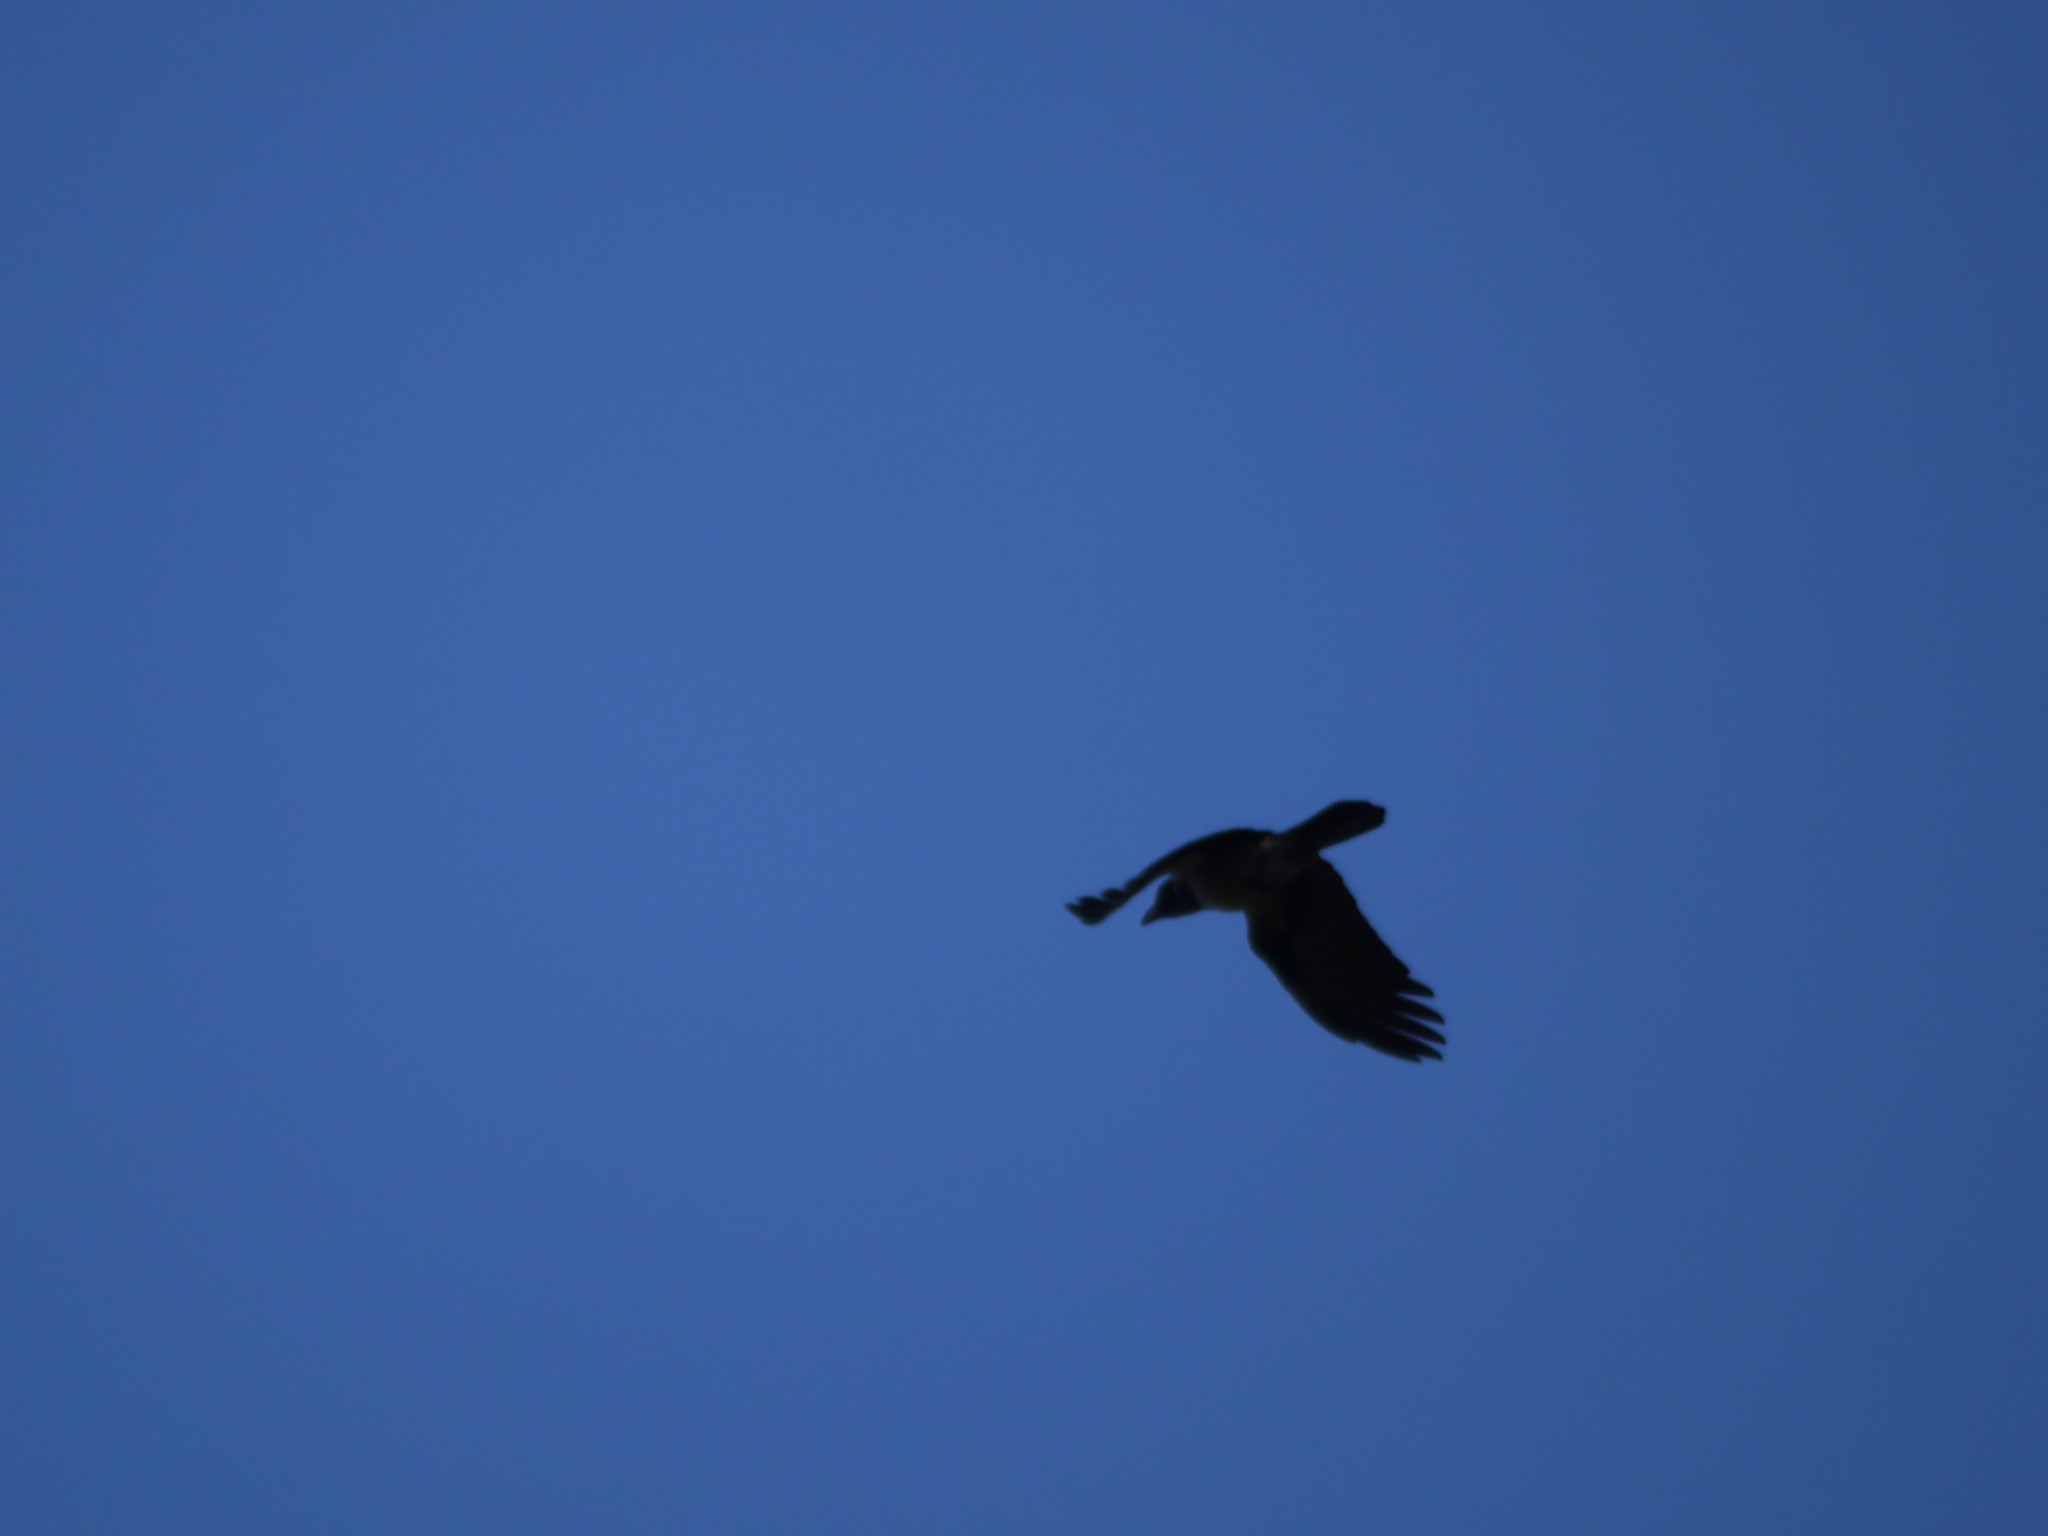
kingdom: Animalia
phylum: Chordata
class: Aves
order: Passeriformes
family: Corvidae
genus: Corvus
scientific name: Corvus cornix
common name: Hooded crow
